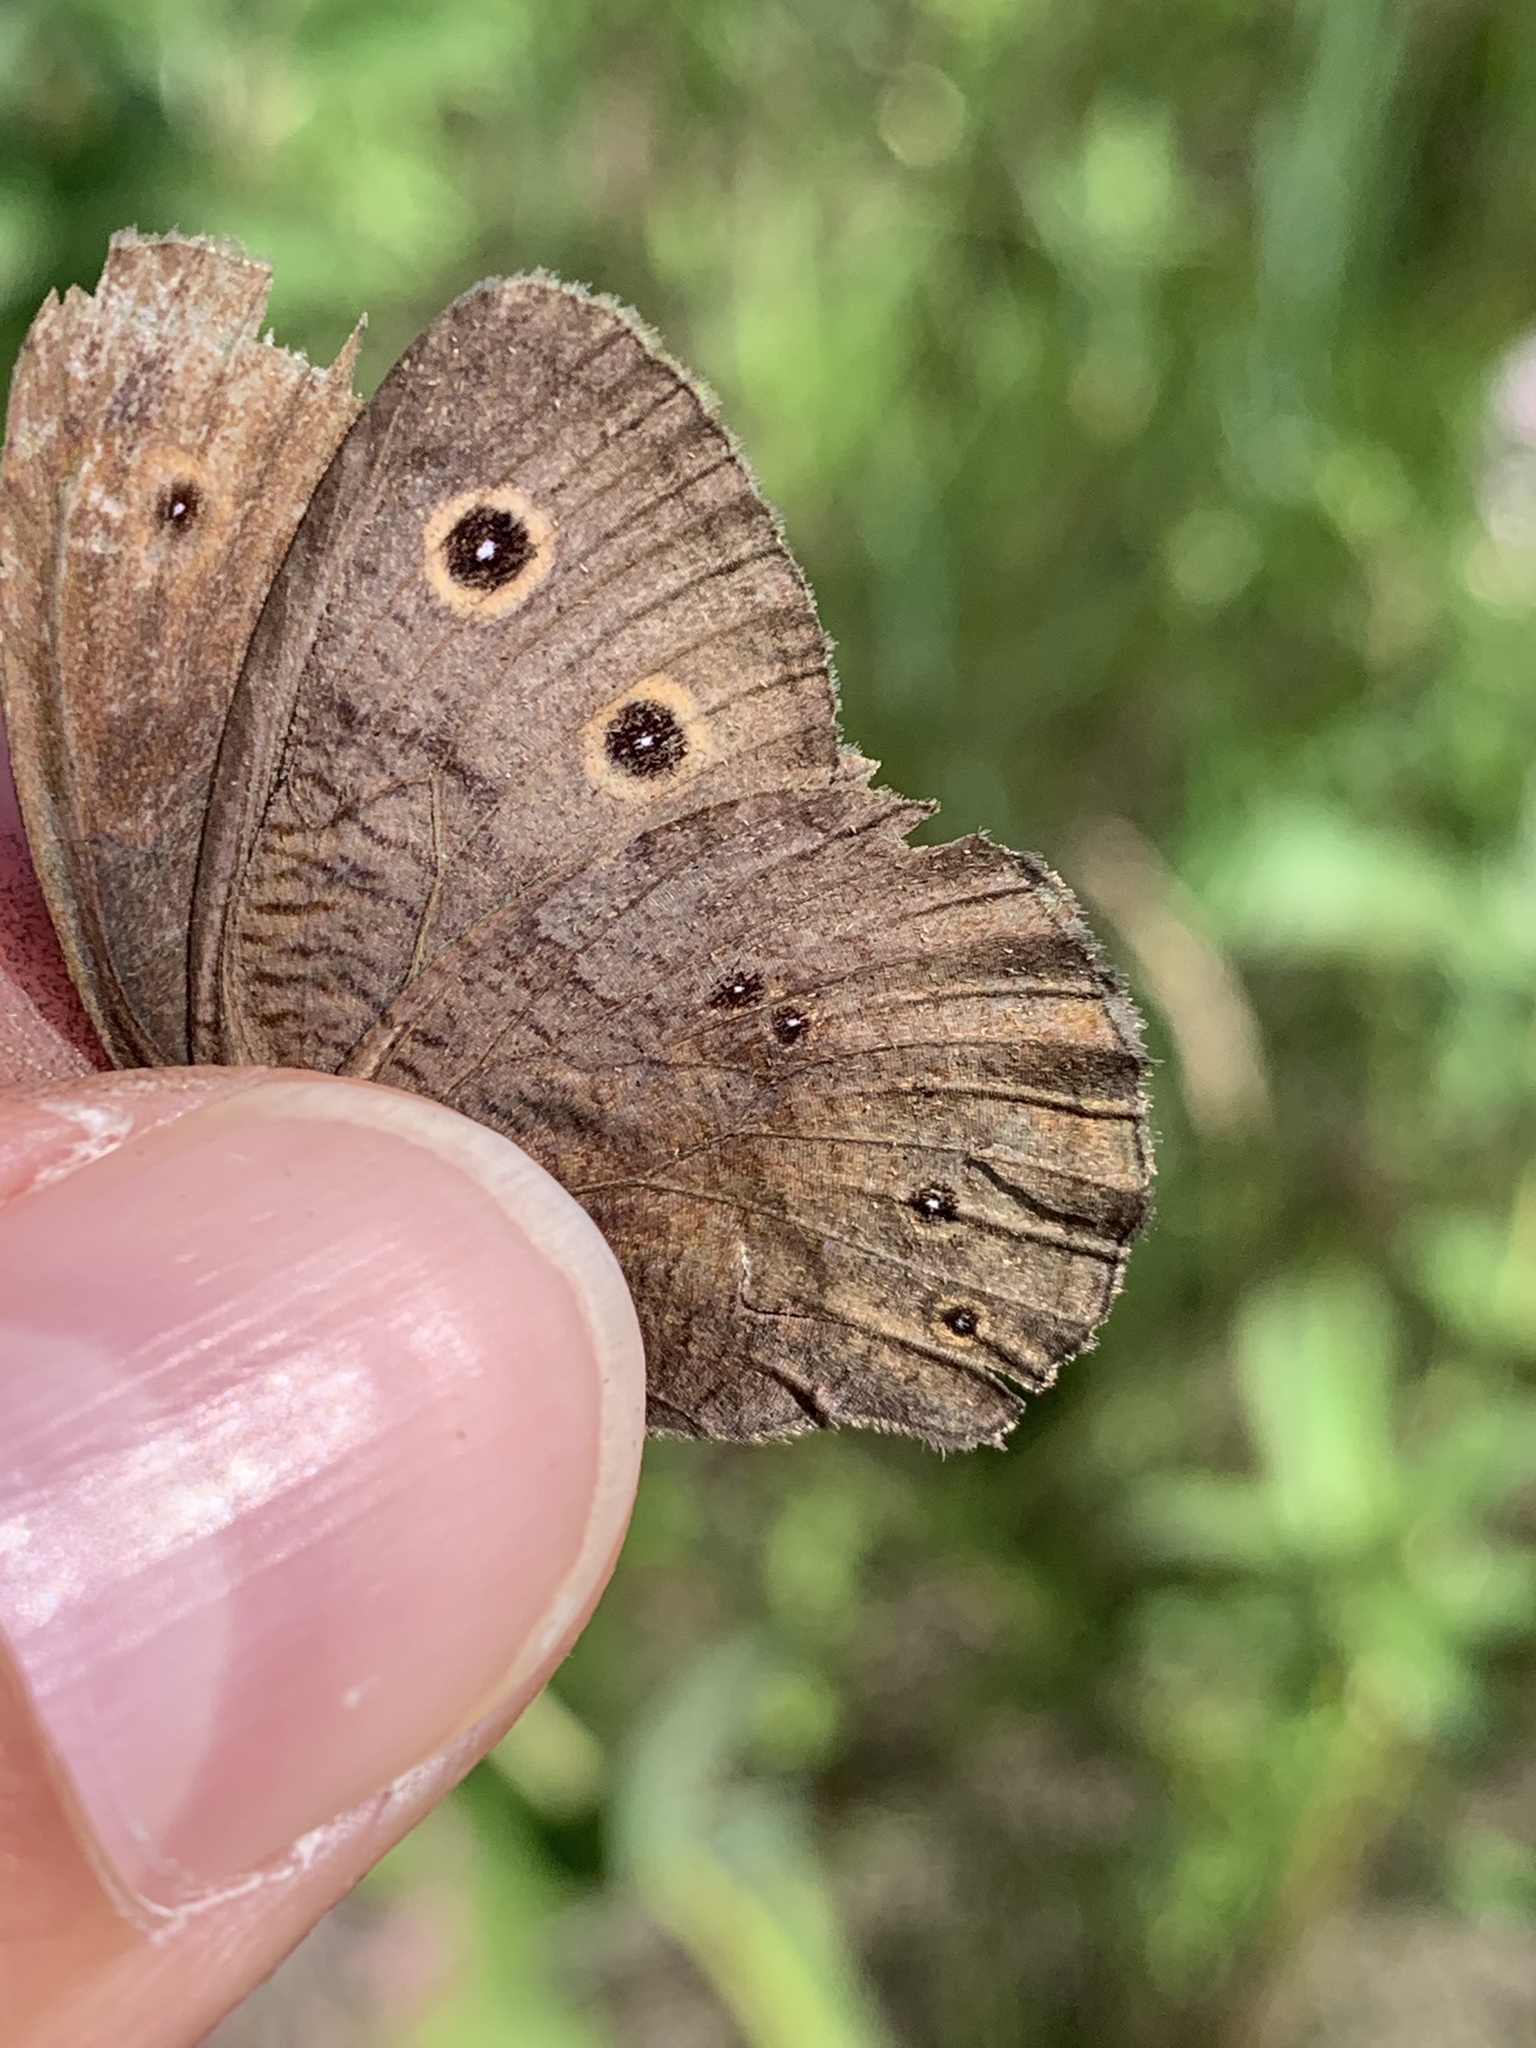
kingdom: Animalia
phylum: Arthropoda
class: Insecta
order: Lepidoptera
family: Nymphalidae
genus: Cercyonis
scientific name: Cercyonis pegala
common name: Common wood-nymph
